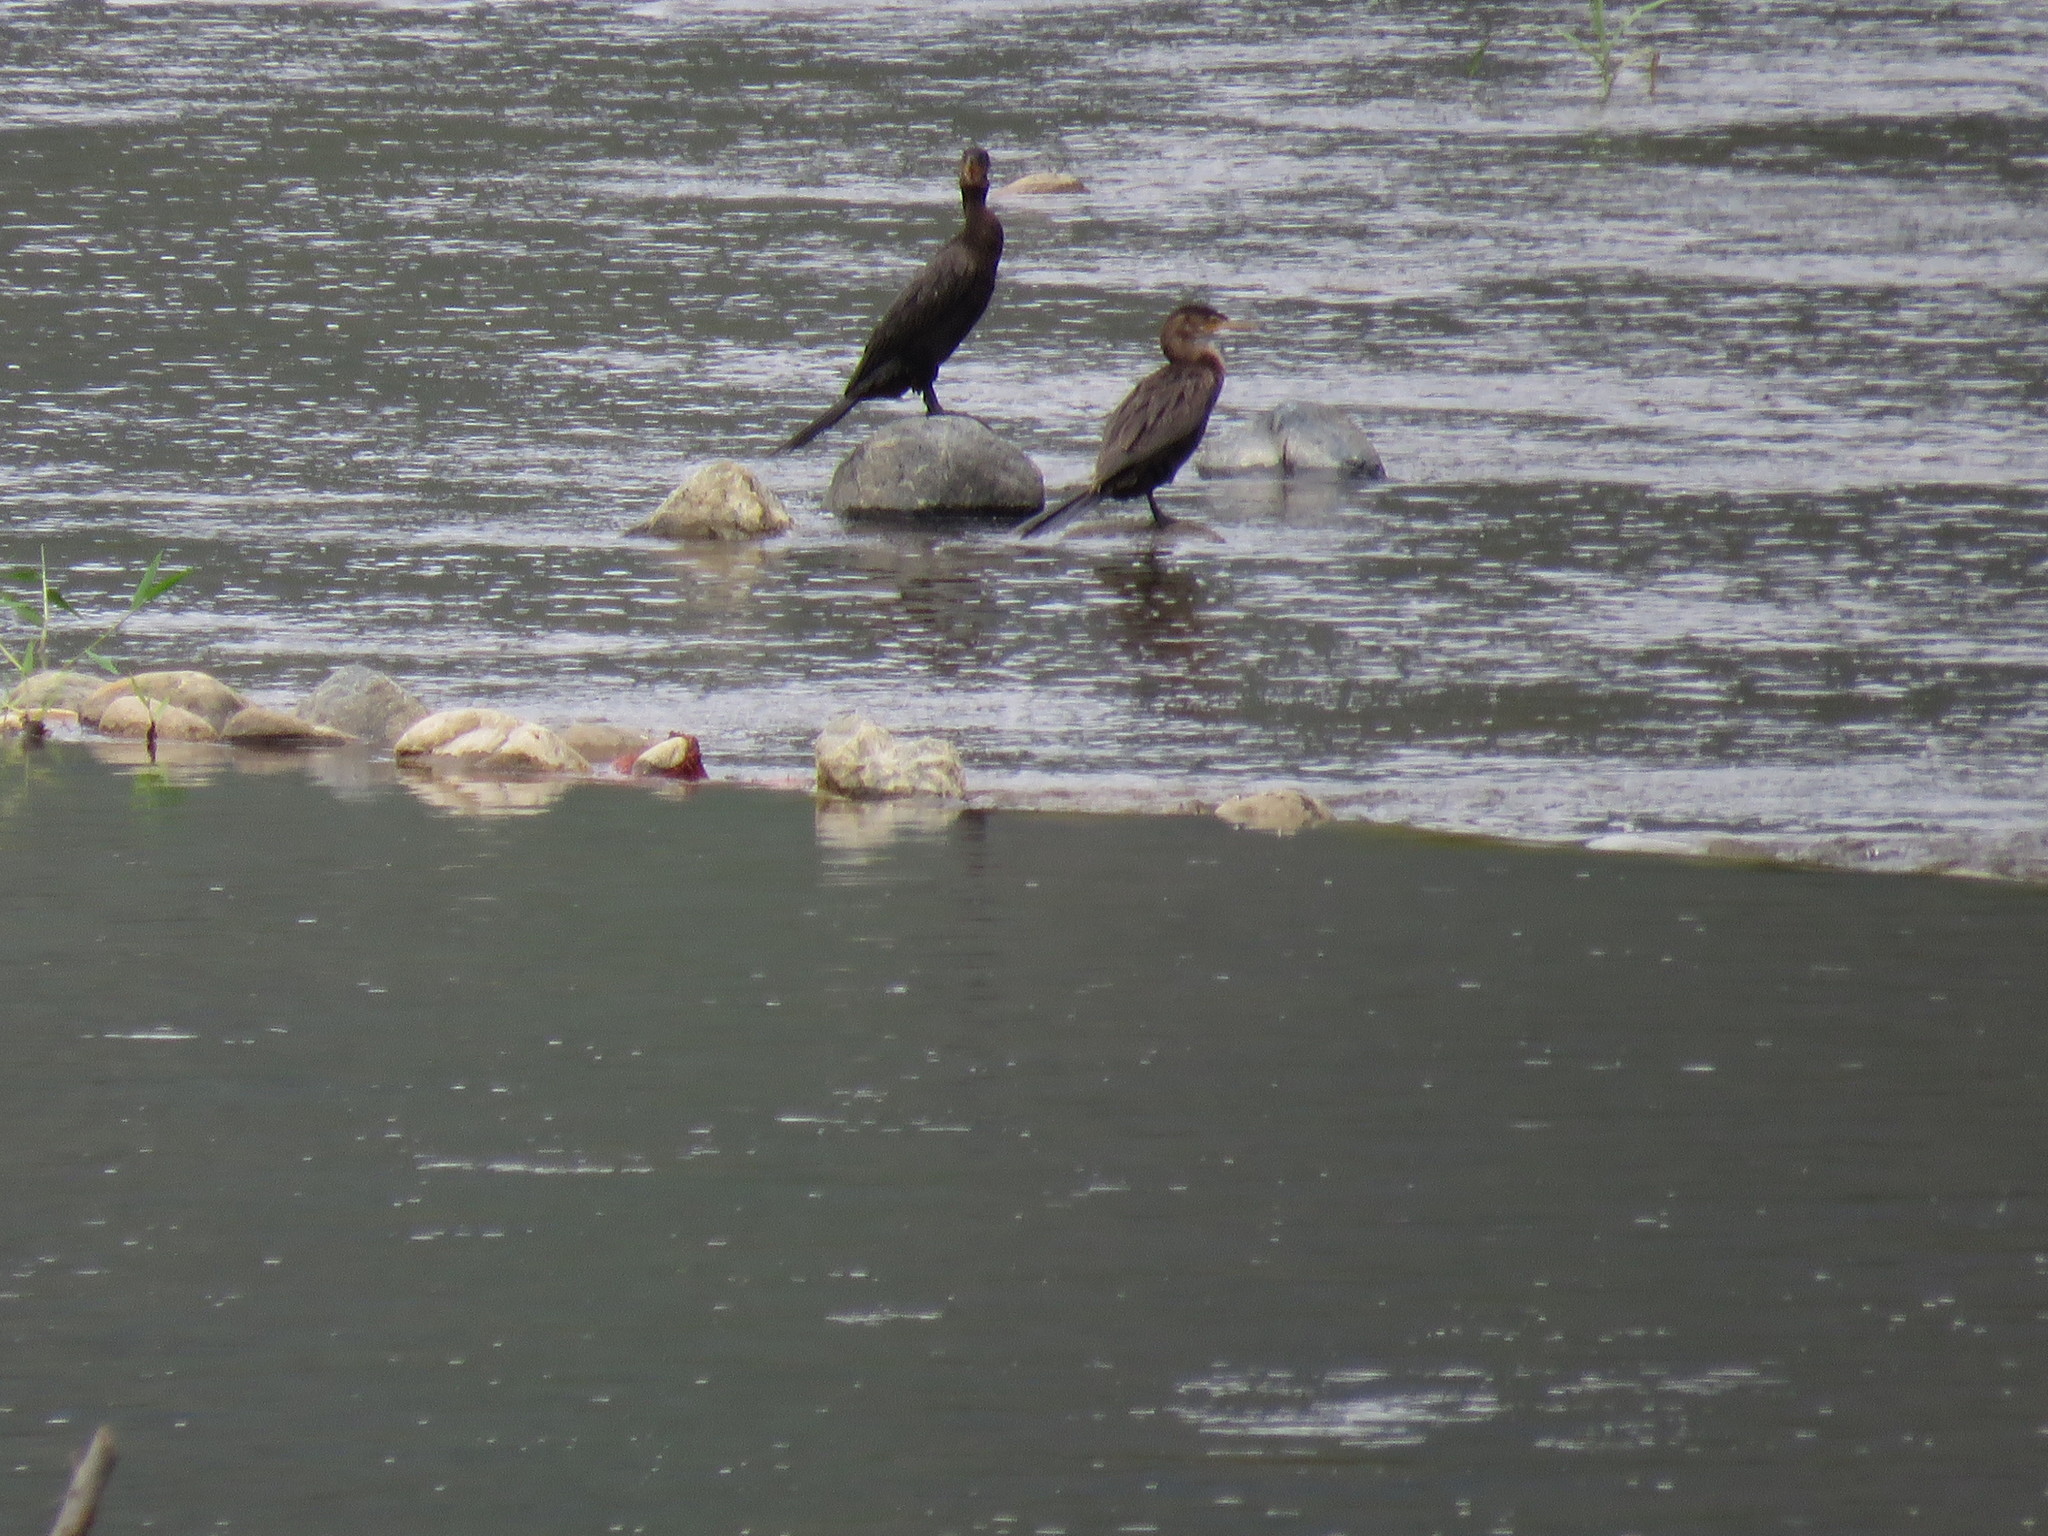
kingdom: Animalia
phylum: Chordata
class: Aves
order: Suliformes
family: Phalacrocoracidae
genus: Phalacrocorax
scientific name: Phalacrocorax brasilianus
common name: Neotropic cormorant
